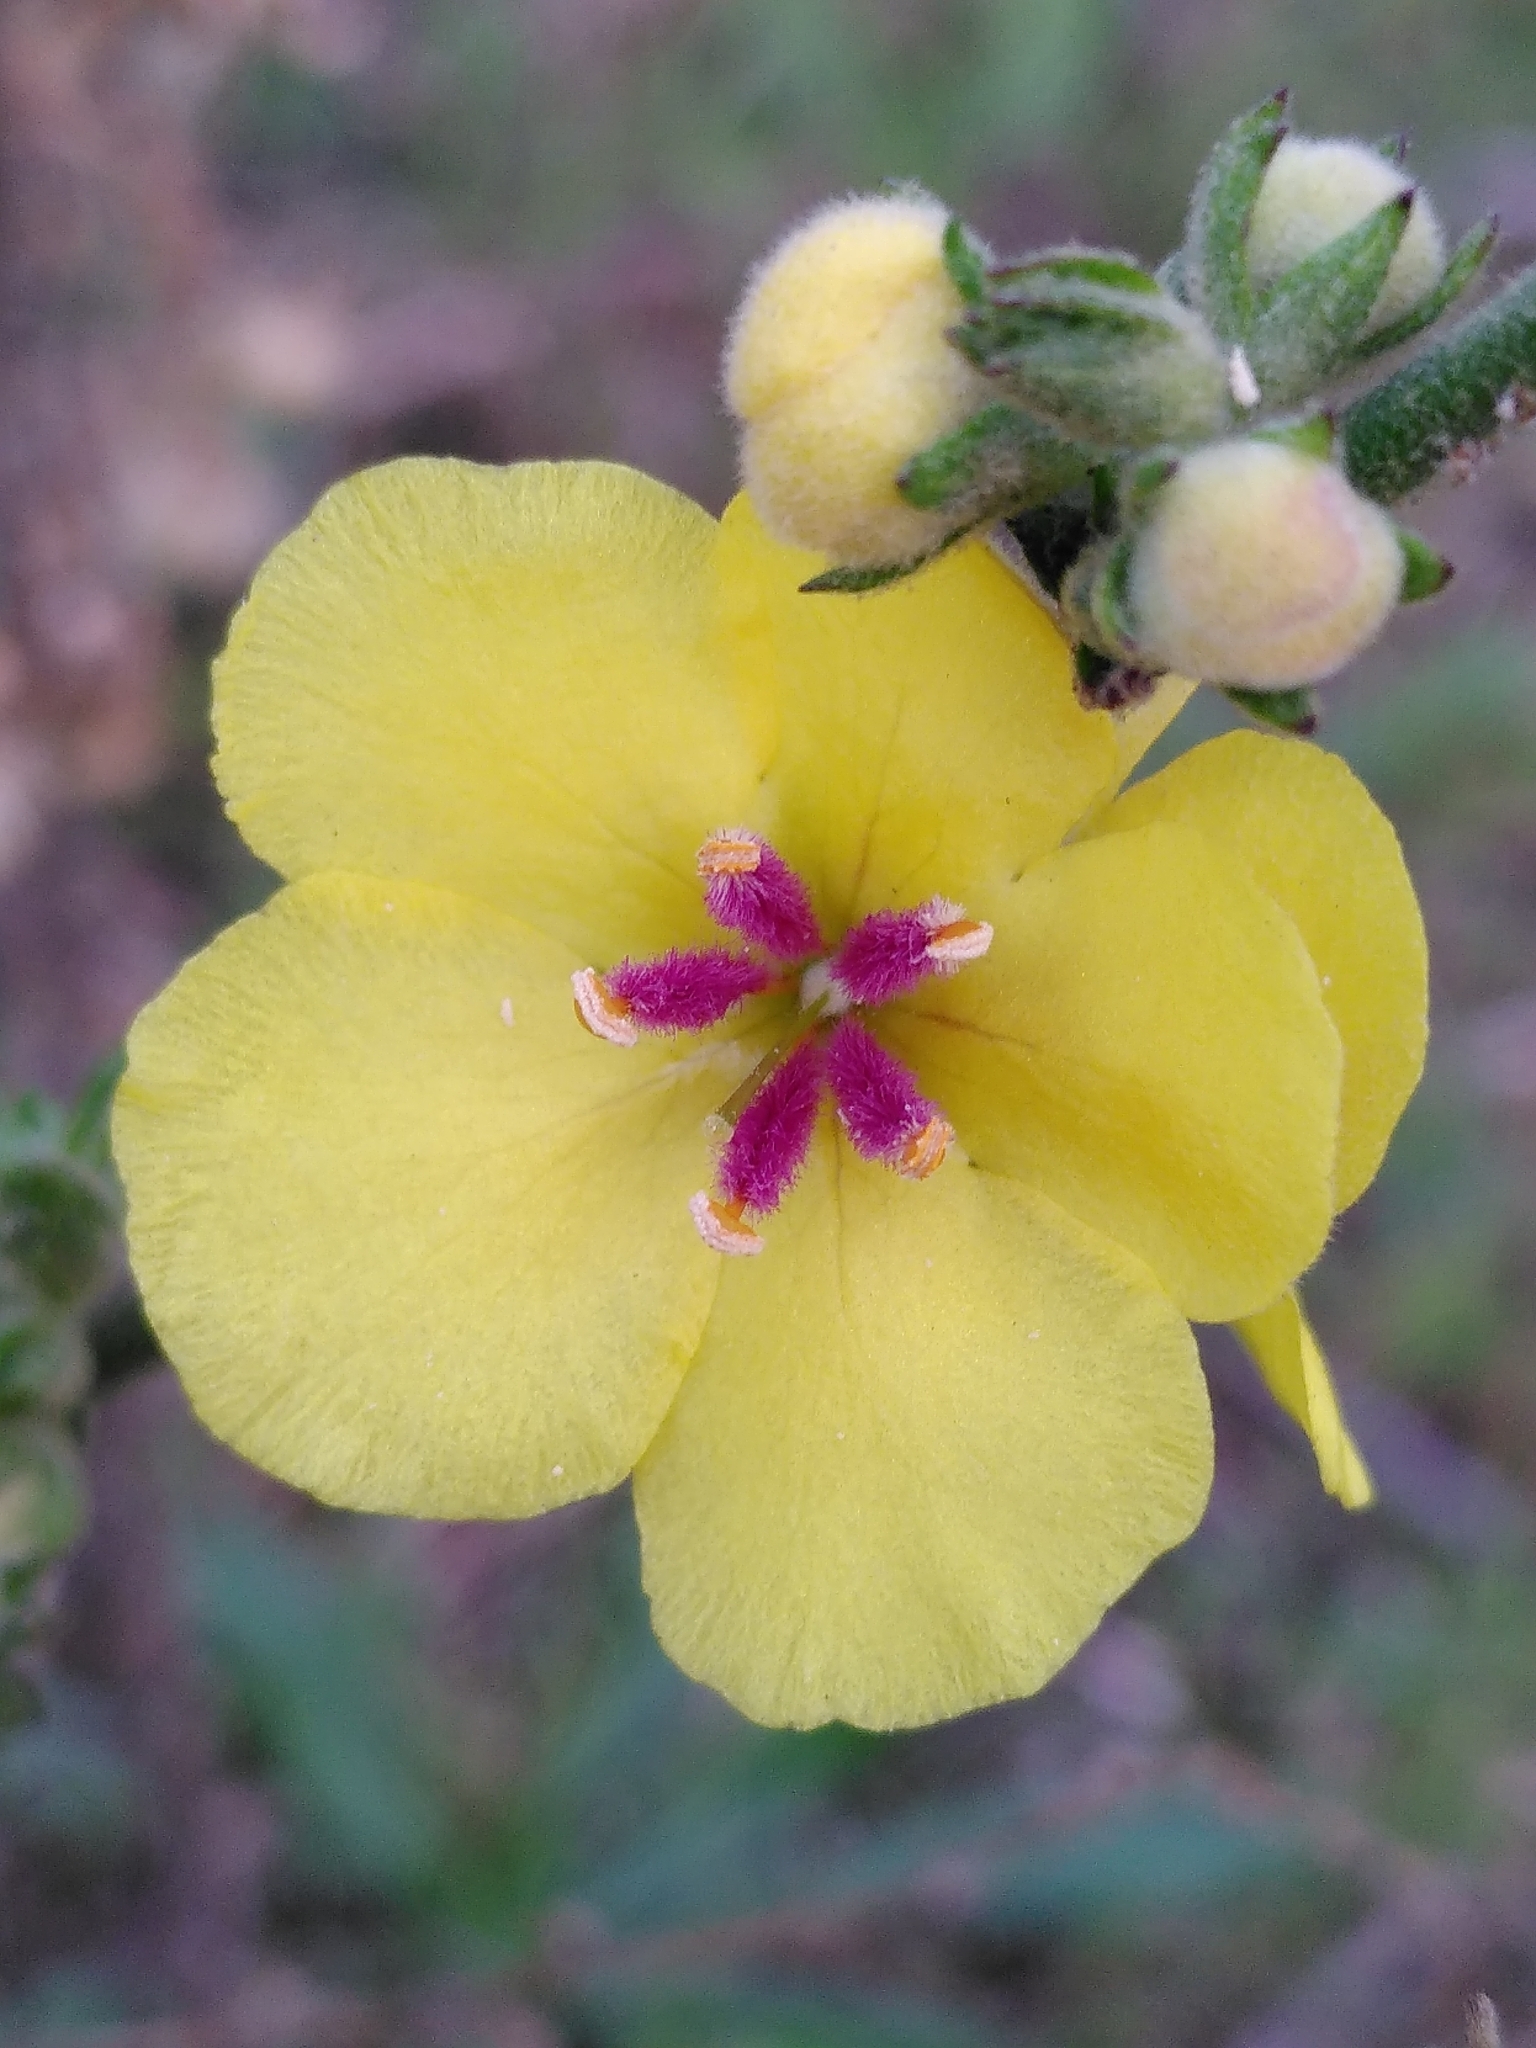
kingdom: Plantae
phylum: Tracheophyta
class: Magnoliopsida
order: Lamiales
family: Scrophulariaceae
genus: Verbascum
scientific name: Verbascum sinuatum
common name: Wavyleaf mullein
